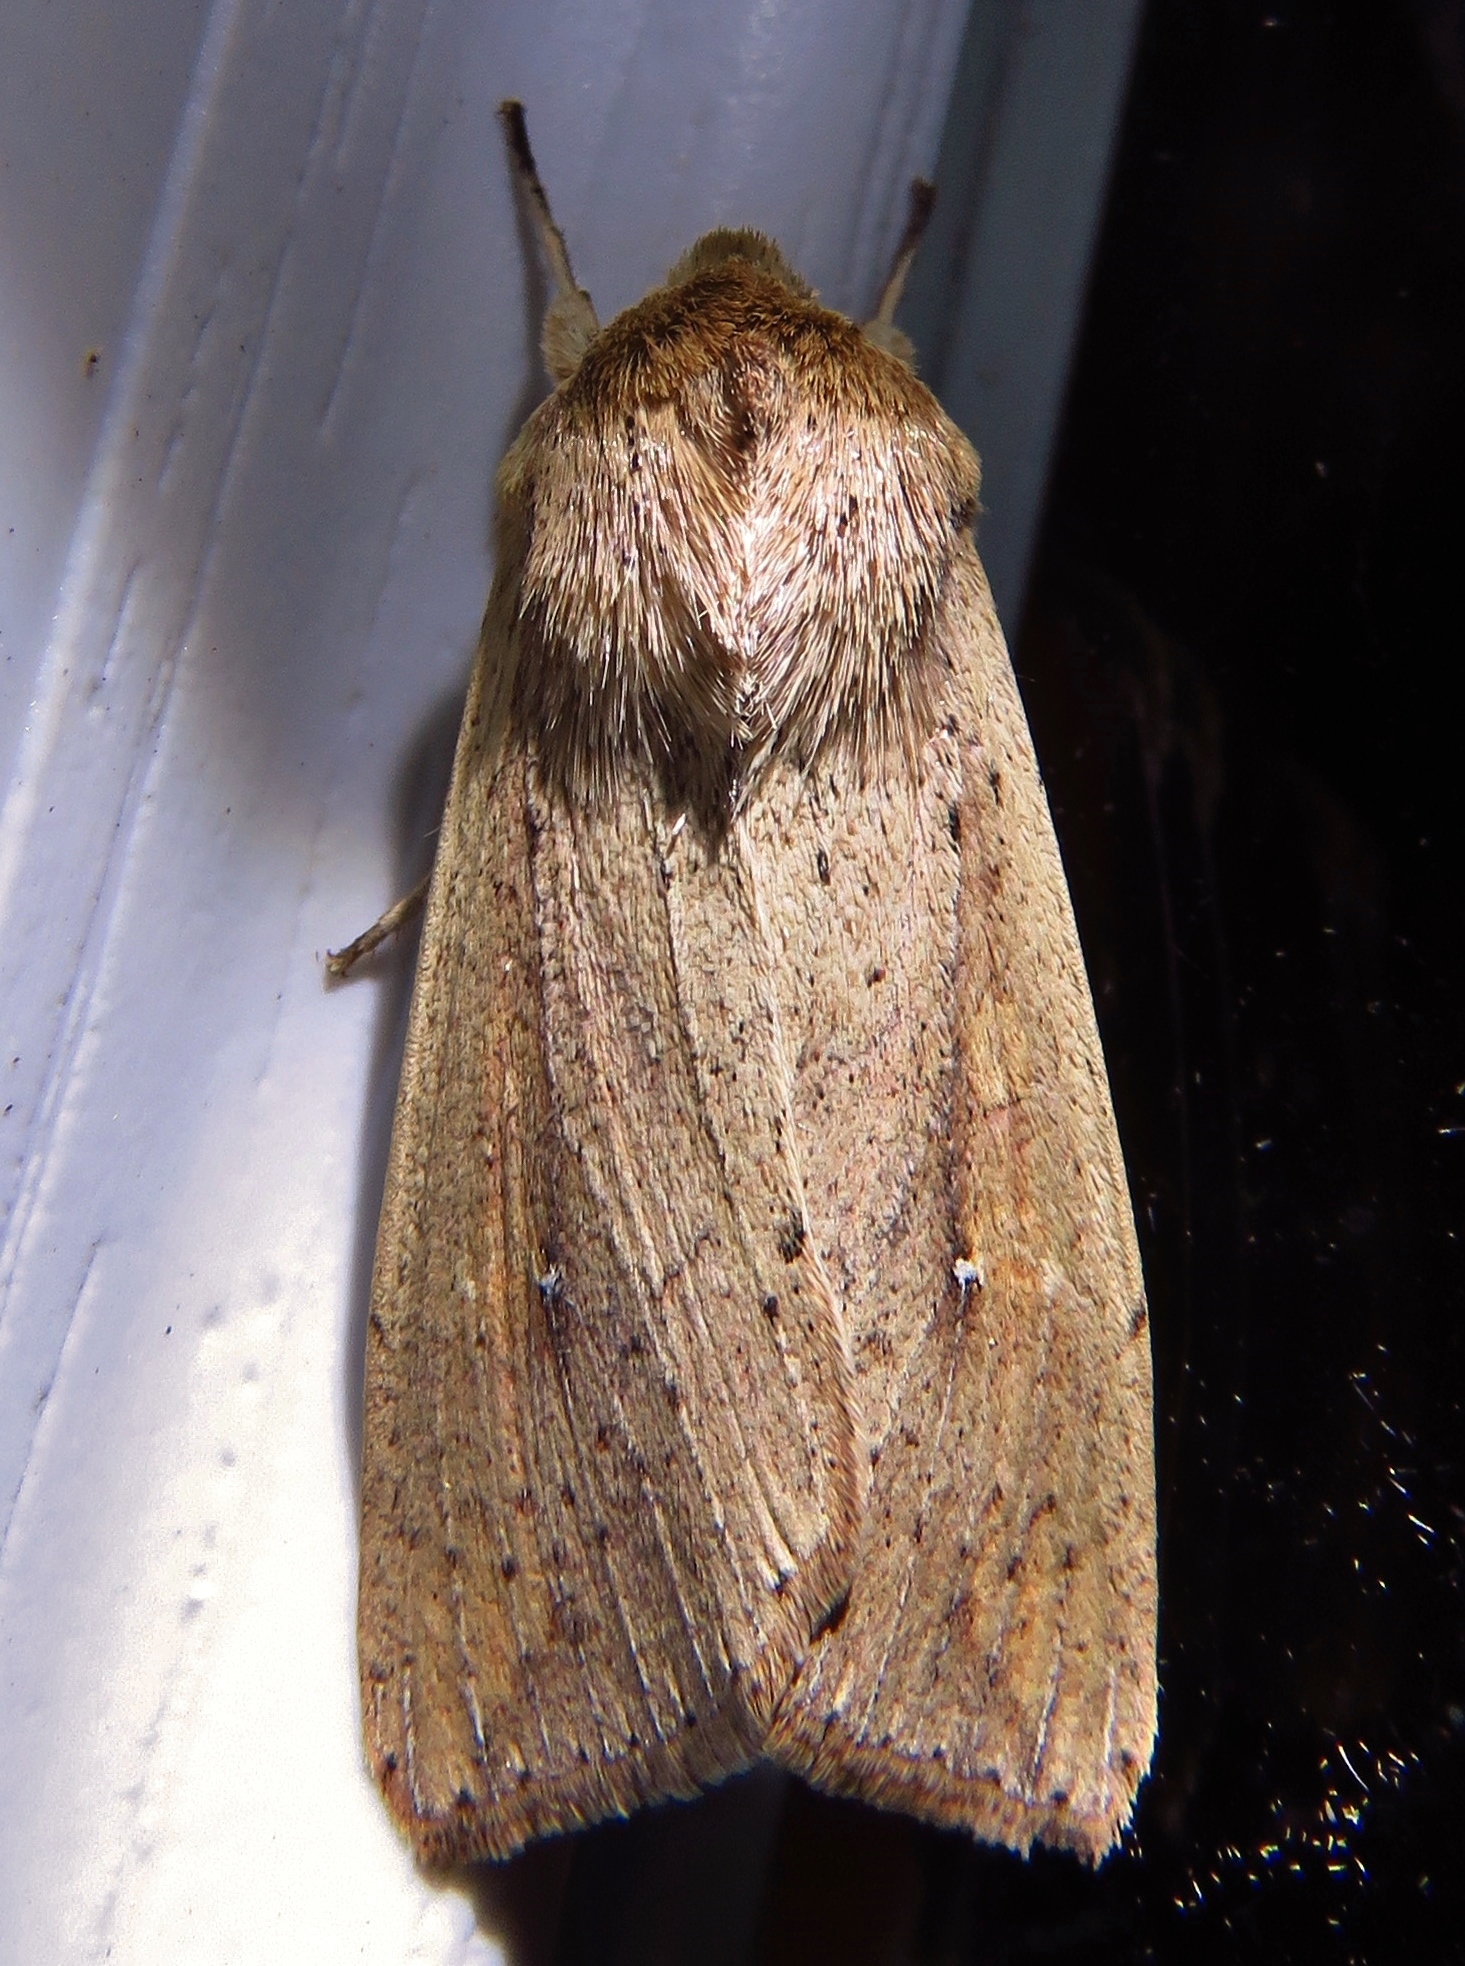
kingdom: Animalia
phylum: Arthropoda
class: Insecta
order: Lepidoptera
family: Noctuidae
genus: Mythimna
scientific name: Mythimna unipuncta
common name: White-speck
